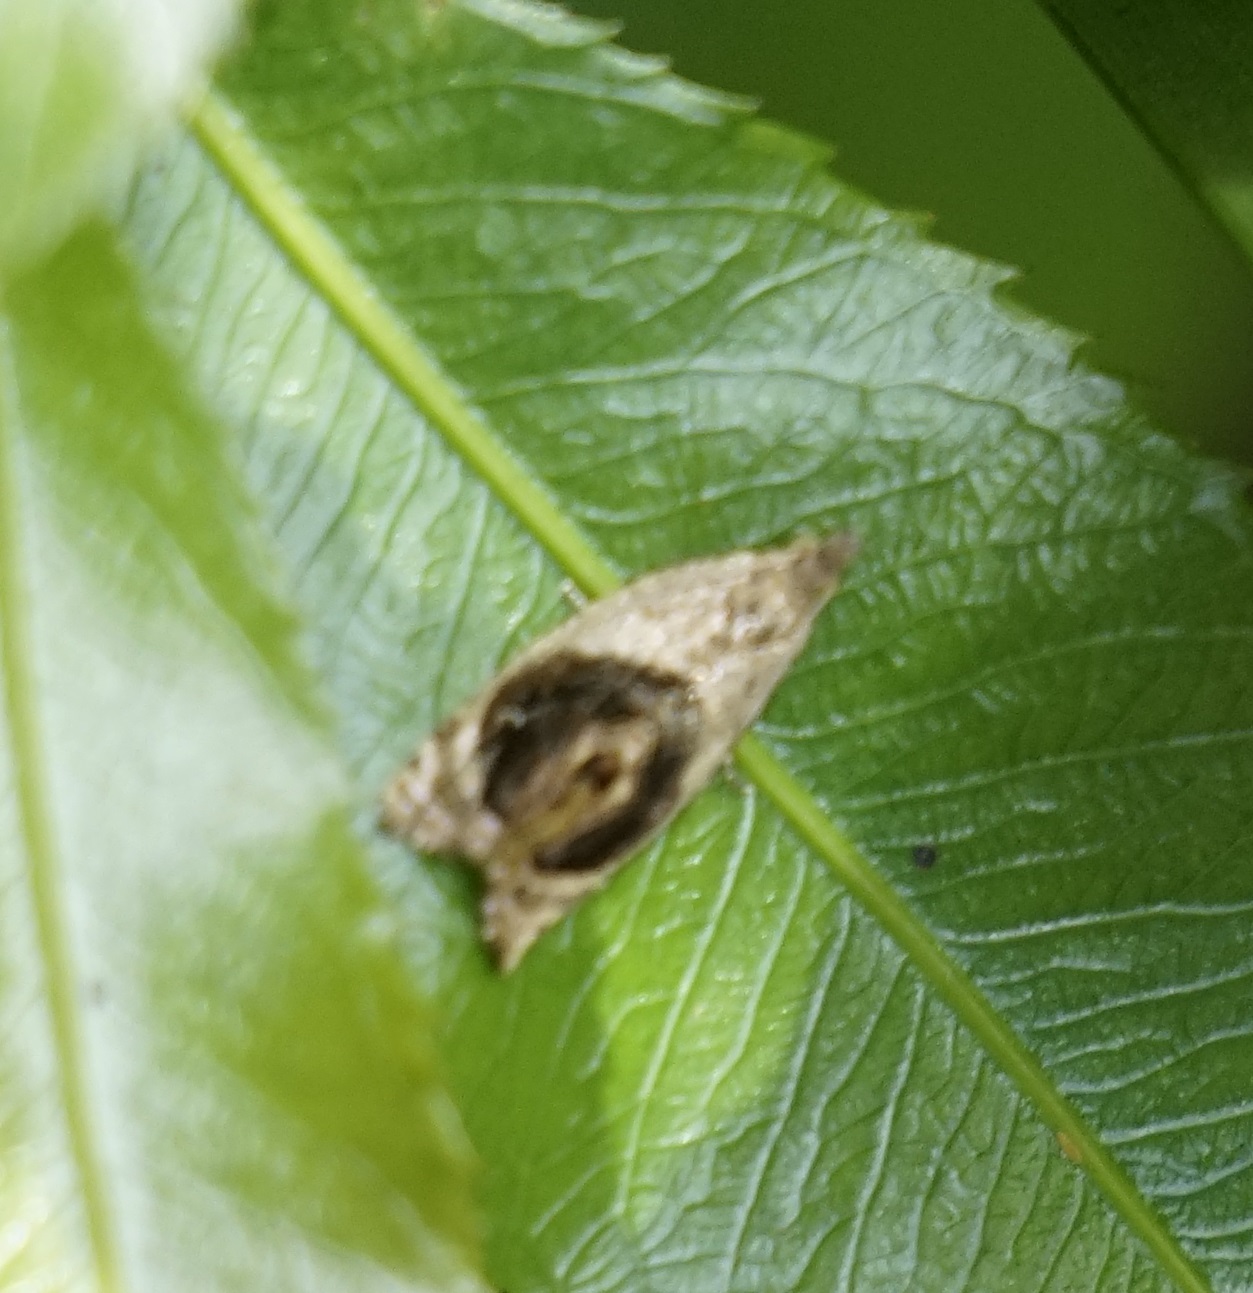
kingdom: Animalia
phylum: Arthropoda
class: Insecta
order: Lepidoptera
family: Tortricidae
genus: Acroceuthes
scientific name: Acroceuthes metaxanthana
